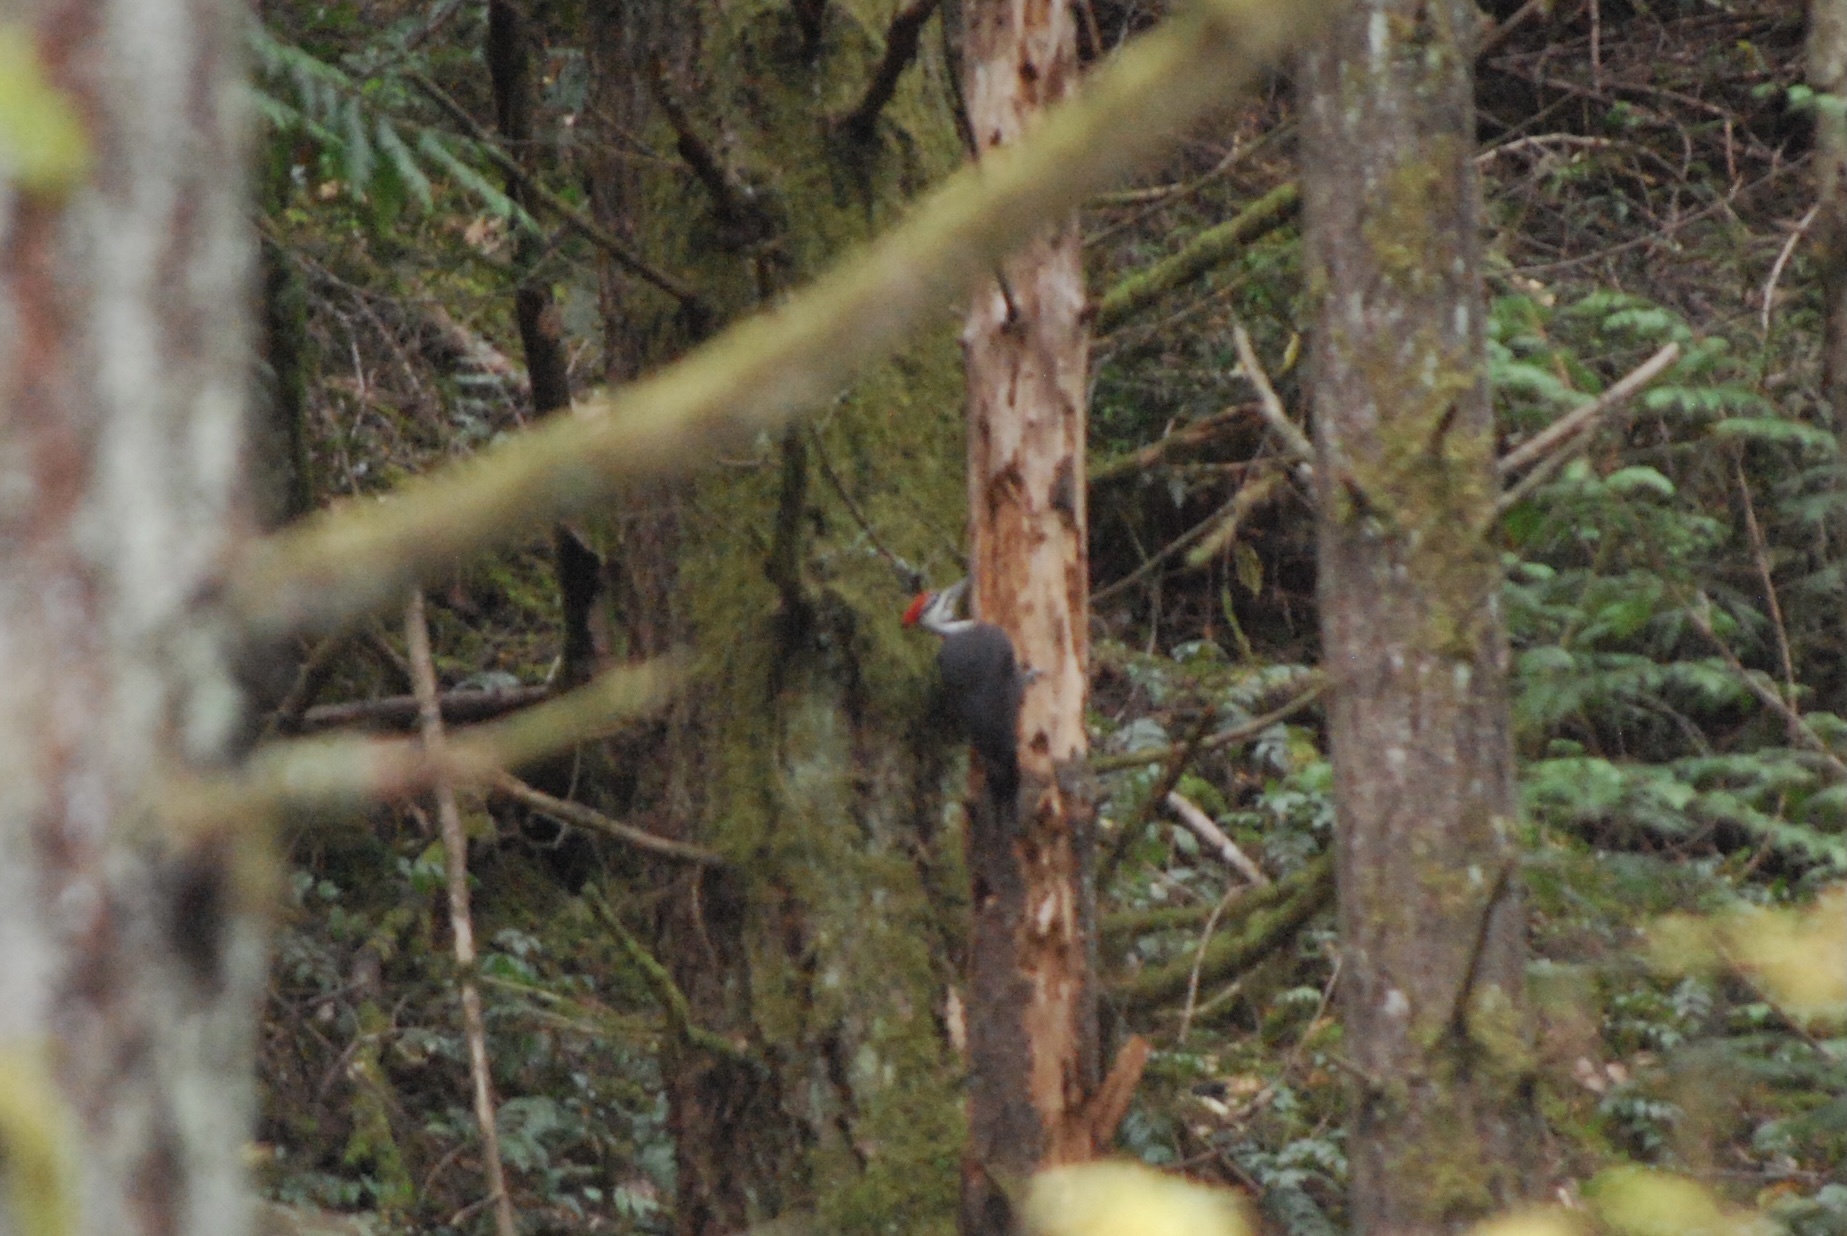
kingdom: Animalia
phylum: Chordata
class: Aves
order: Piciformes
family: Picidae
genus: Dryocopus
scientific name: Dryocopus pileatus
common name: Pileated woodpecker
